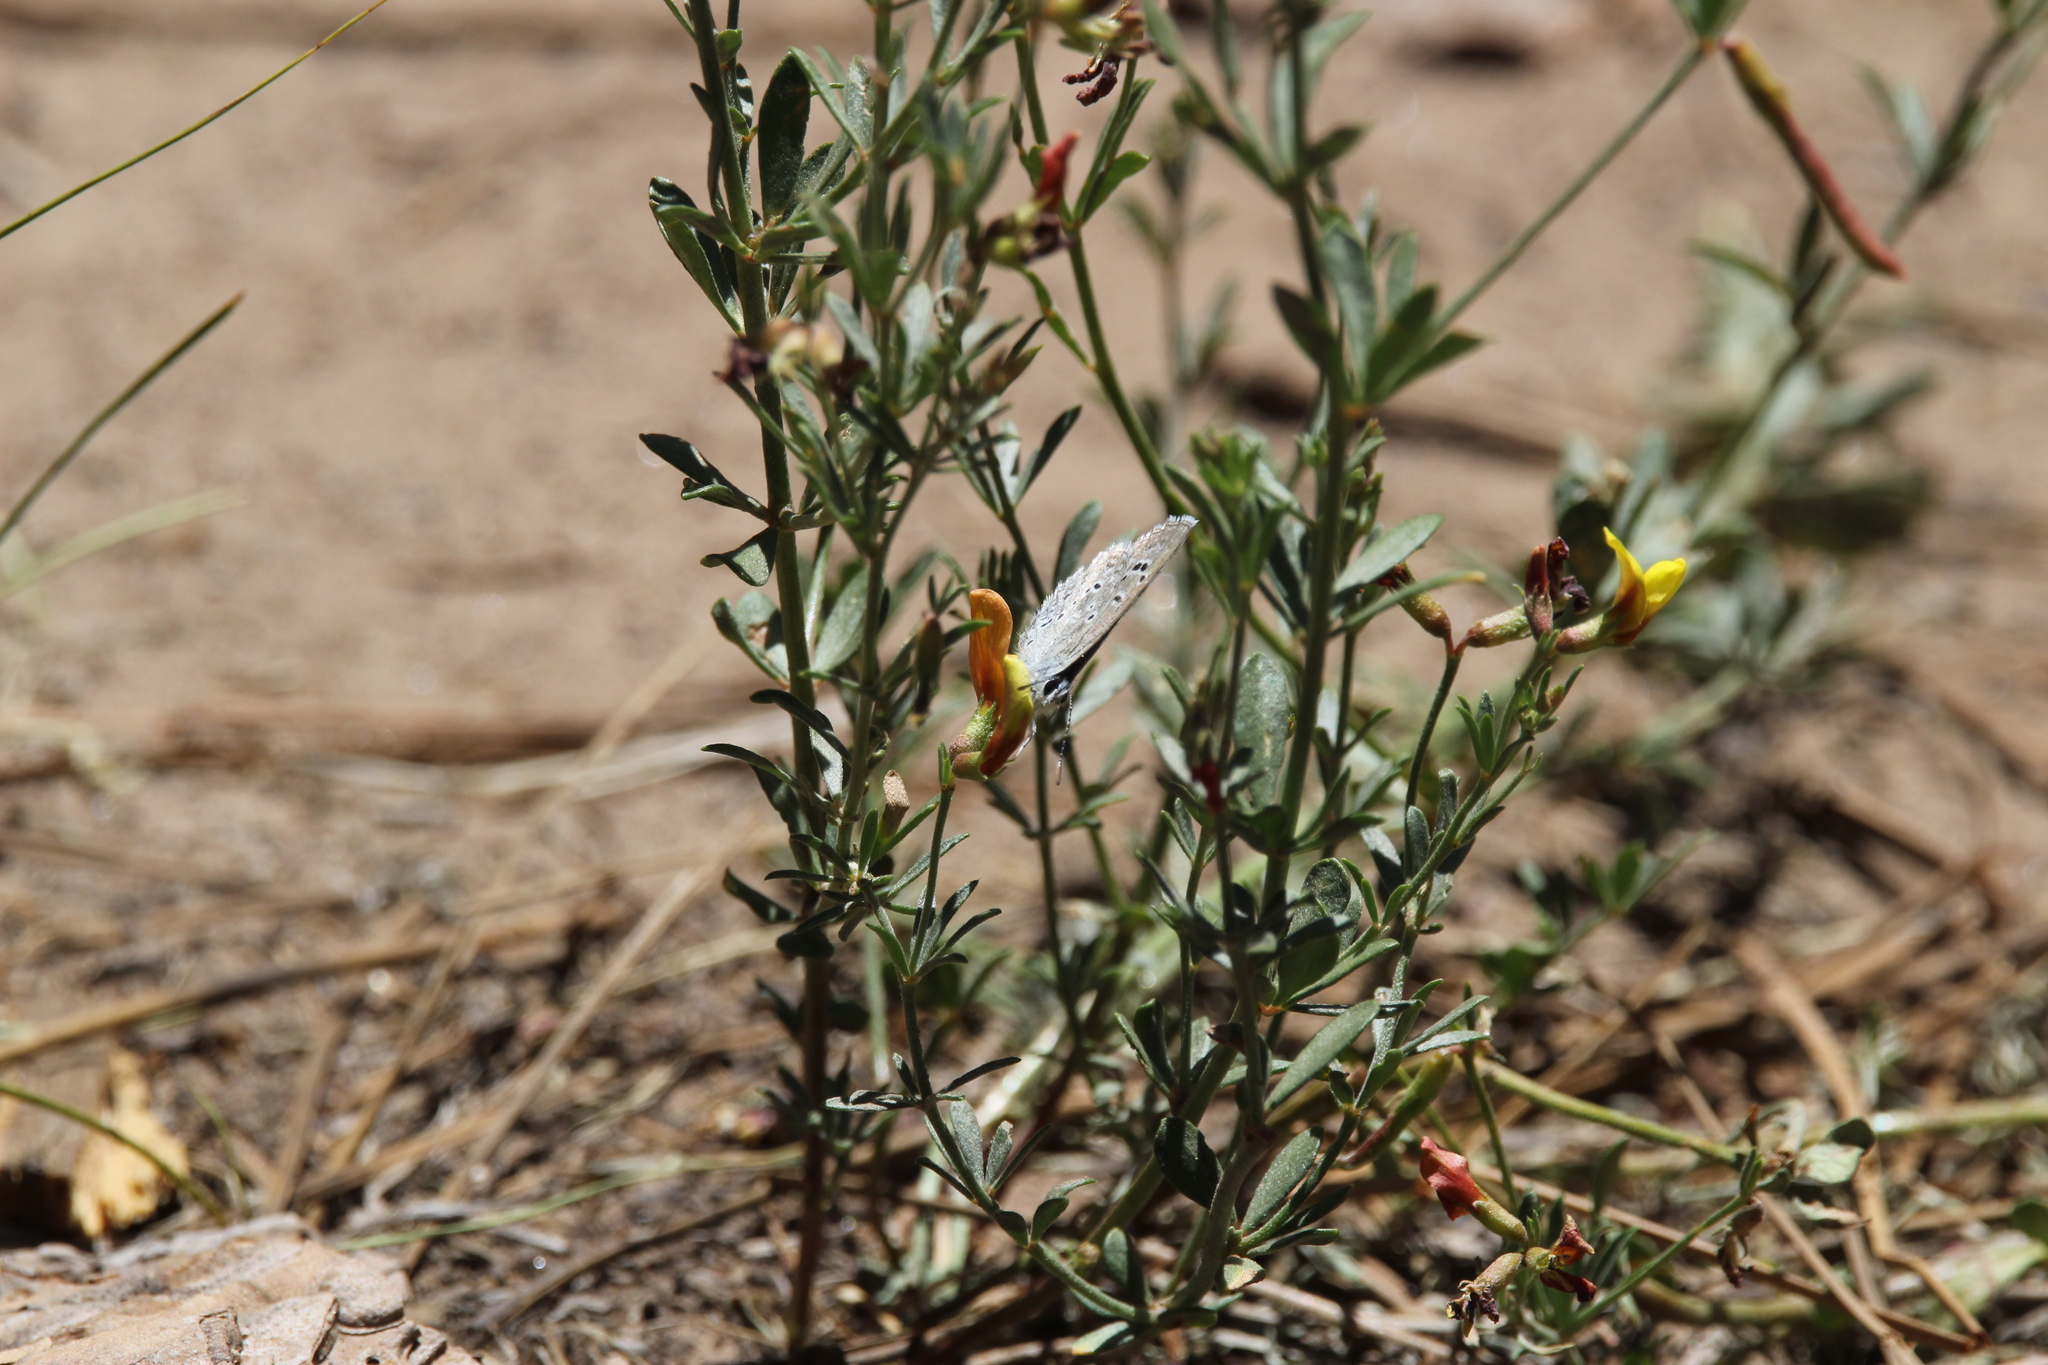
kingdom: Animalia
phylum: Arthropoda
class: Insecta
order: Lepidoptera
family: Lycaenidae
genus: Echinargus
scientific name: Echinargus isola
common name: Reakirt's blue
